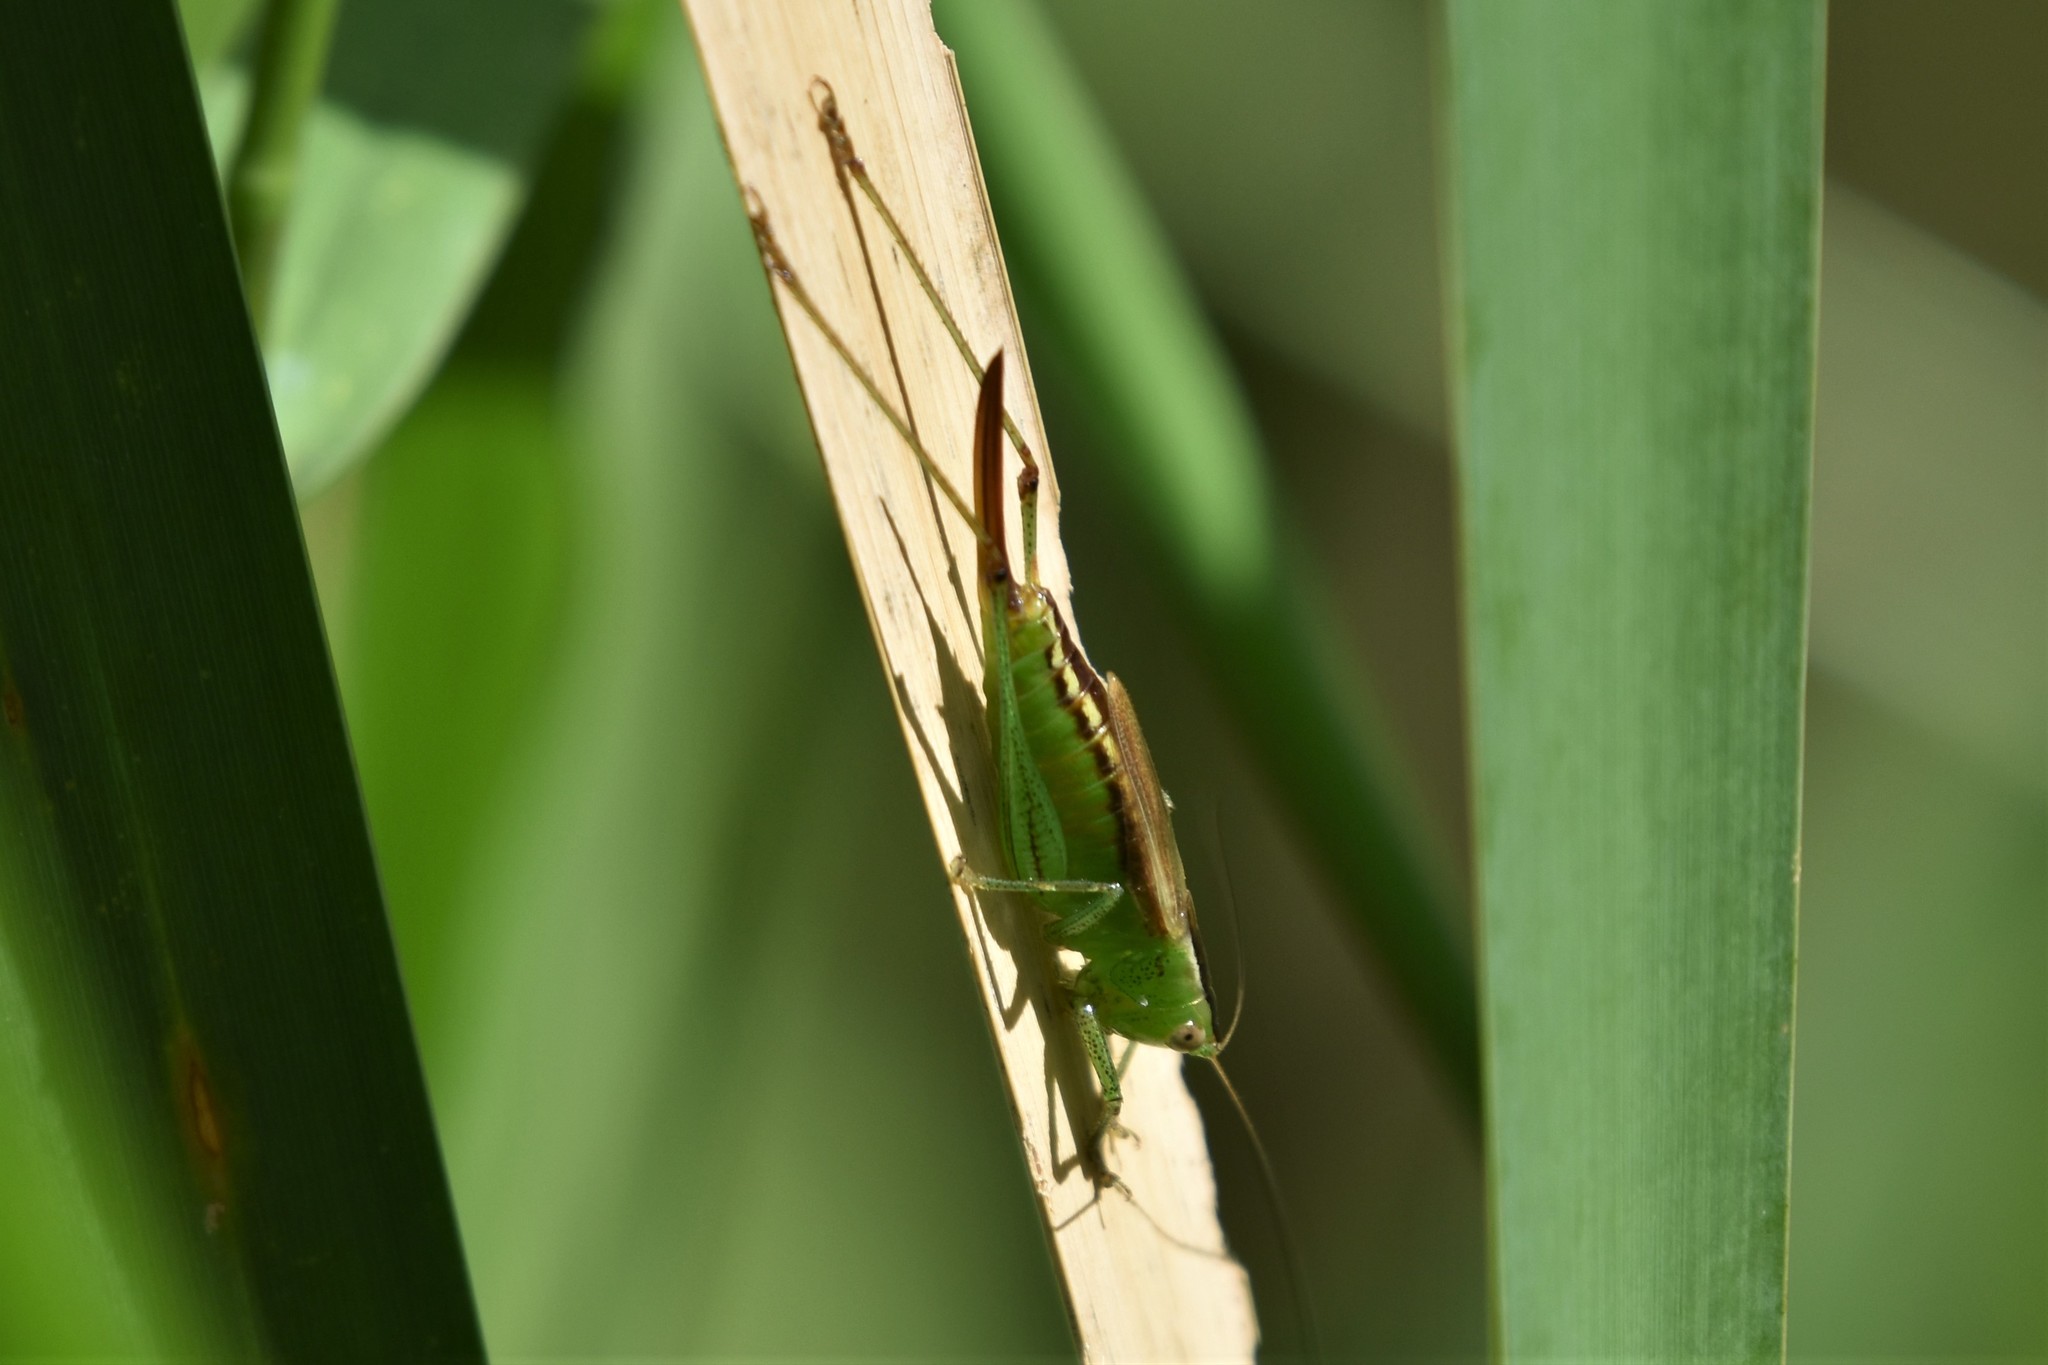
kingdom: Animalia
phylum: Arthropoda
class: Insecta
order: Orthoptera
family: Tettigoniidae
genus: Conocephalus
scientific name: Conocephalus brevipennis
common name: Short-winged meadow katydid
